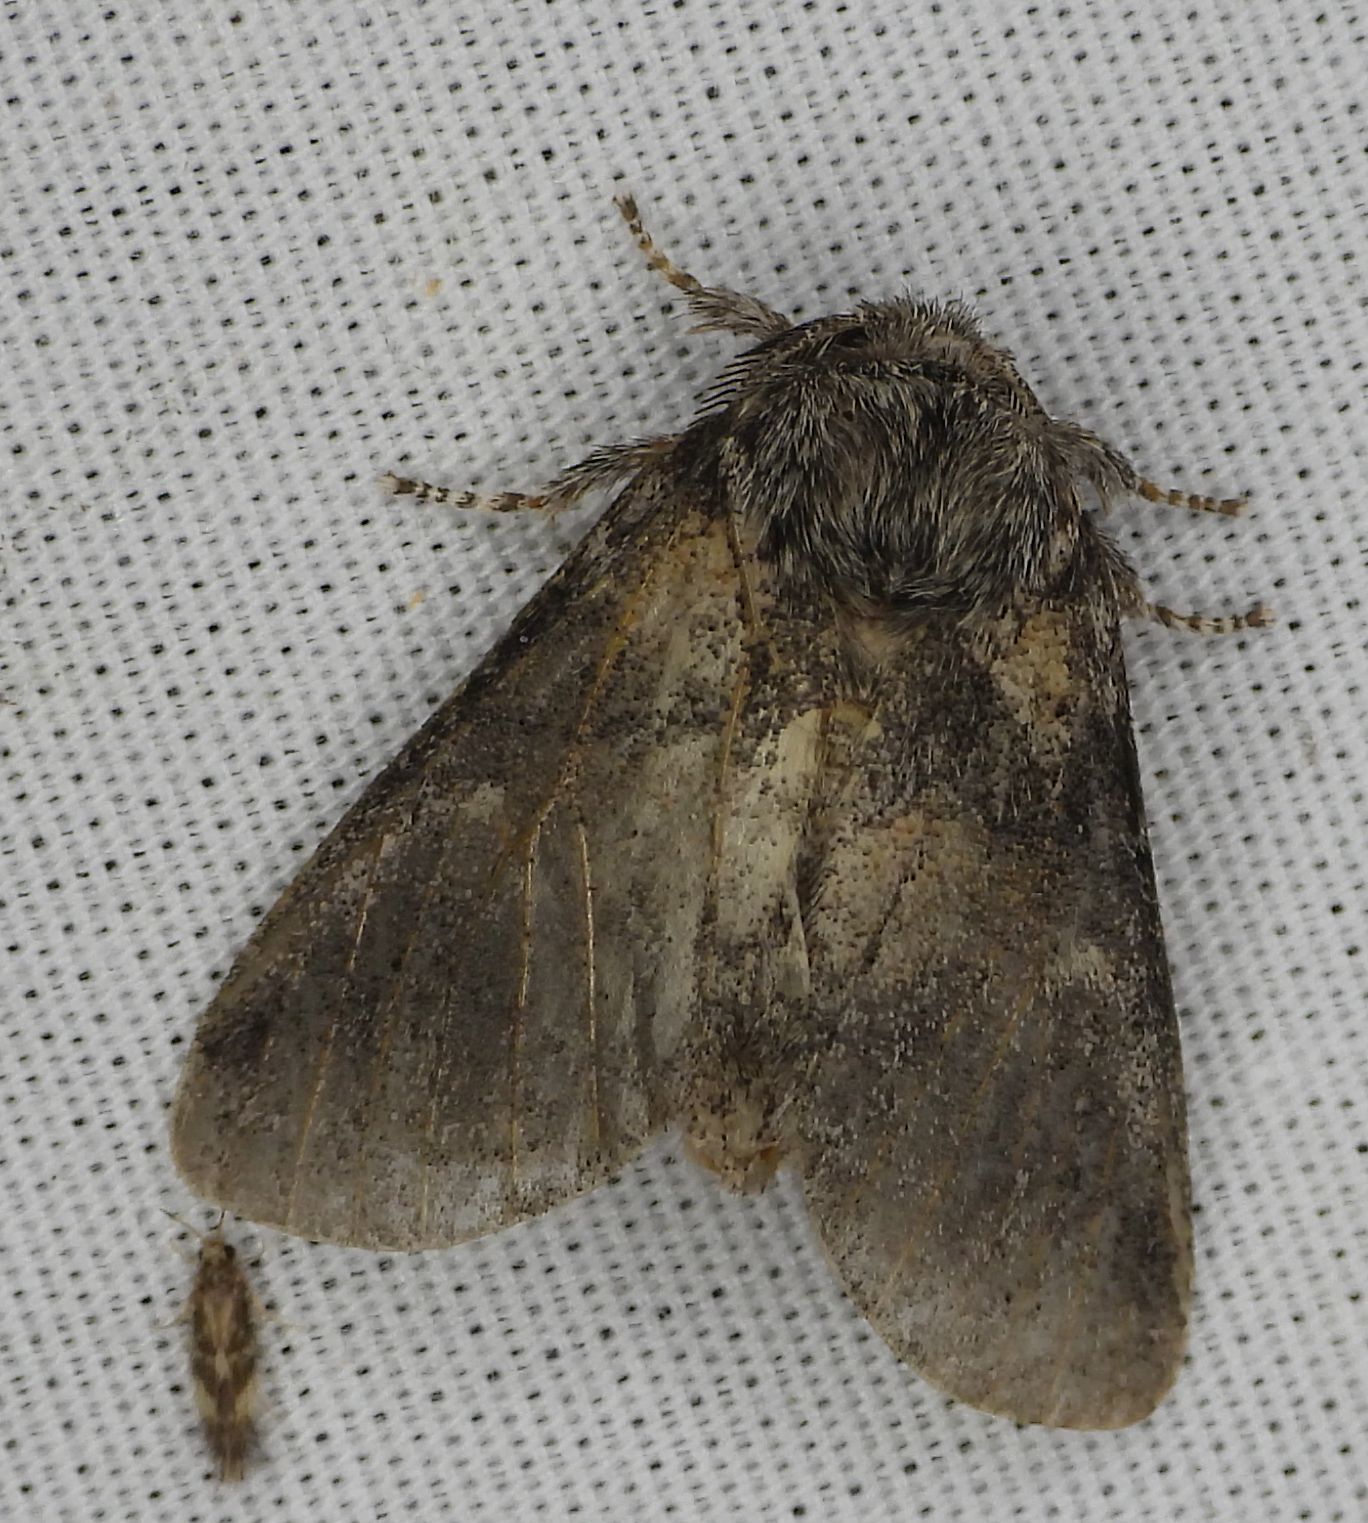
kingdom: Animalia
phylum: Arthropoda
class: Insecta
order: Lepidoptera
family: Notodontidae
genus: Gluphisia
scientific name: Gluphisia septentrionis
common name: Common gluphisia
